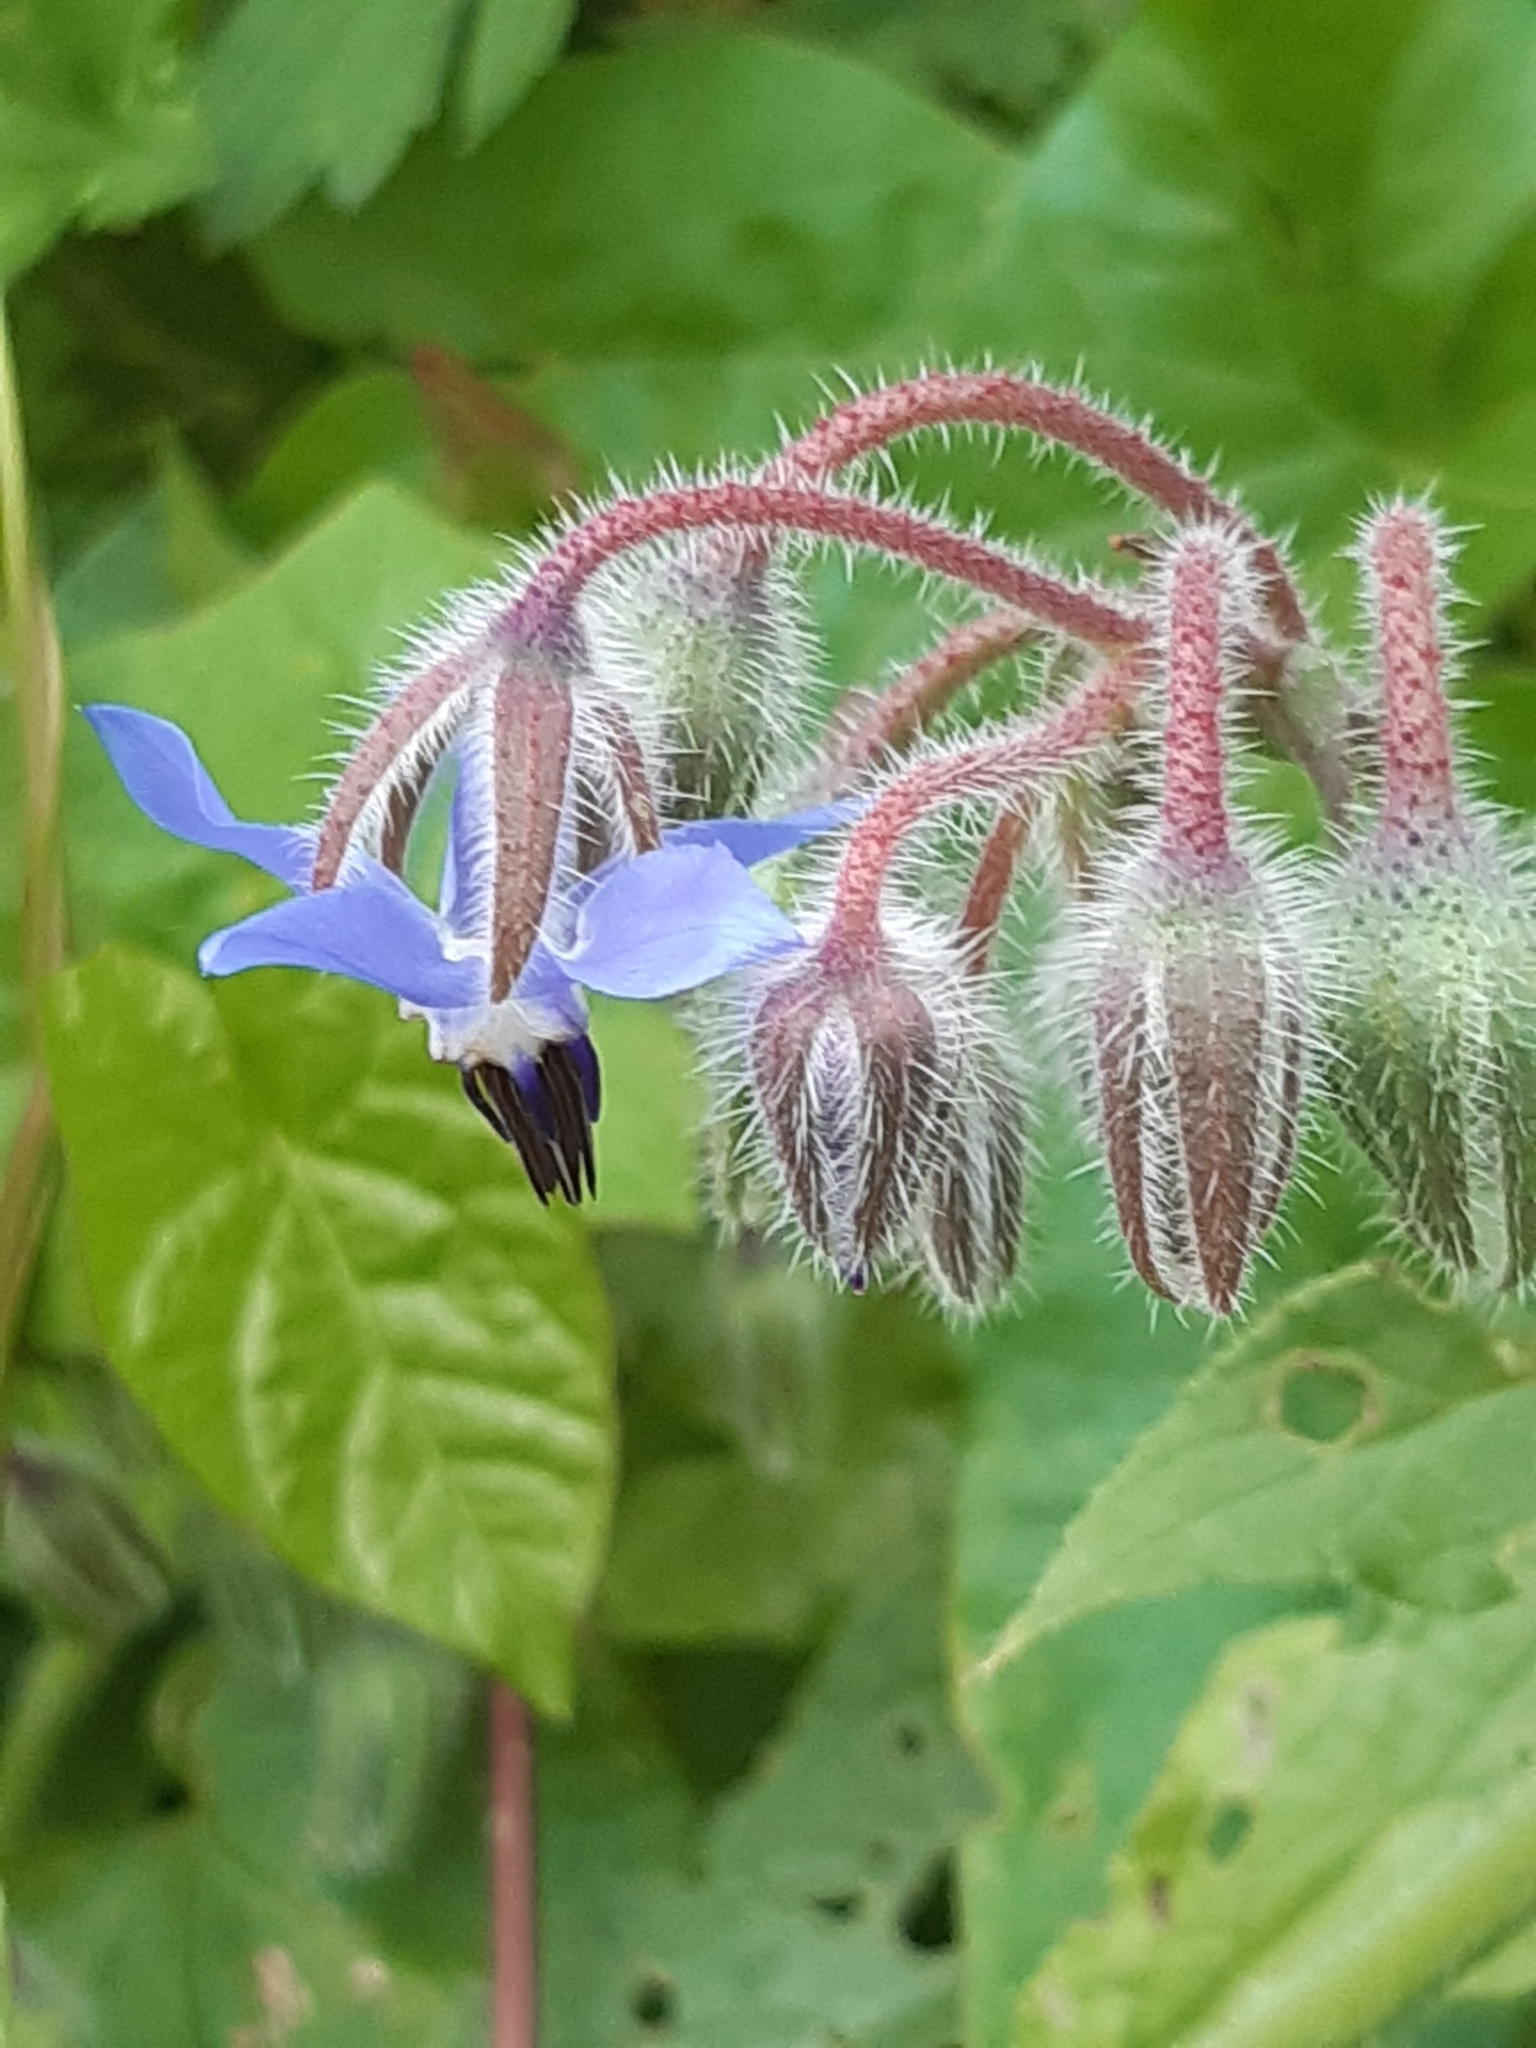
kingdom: Plantae
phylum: Tracheophyta
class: Magnoliopsida
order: Boraginales
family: Boraginaceae
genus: Borago
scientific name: Borago officinalis
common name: Borage
